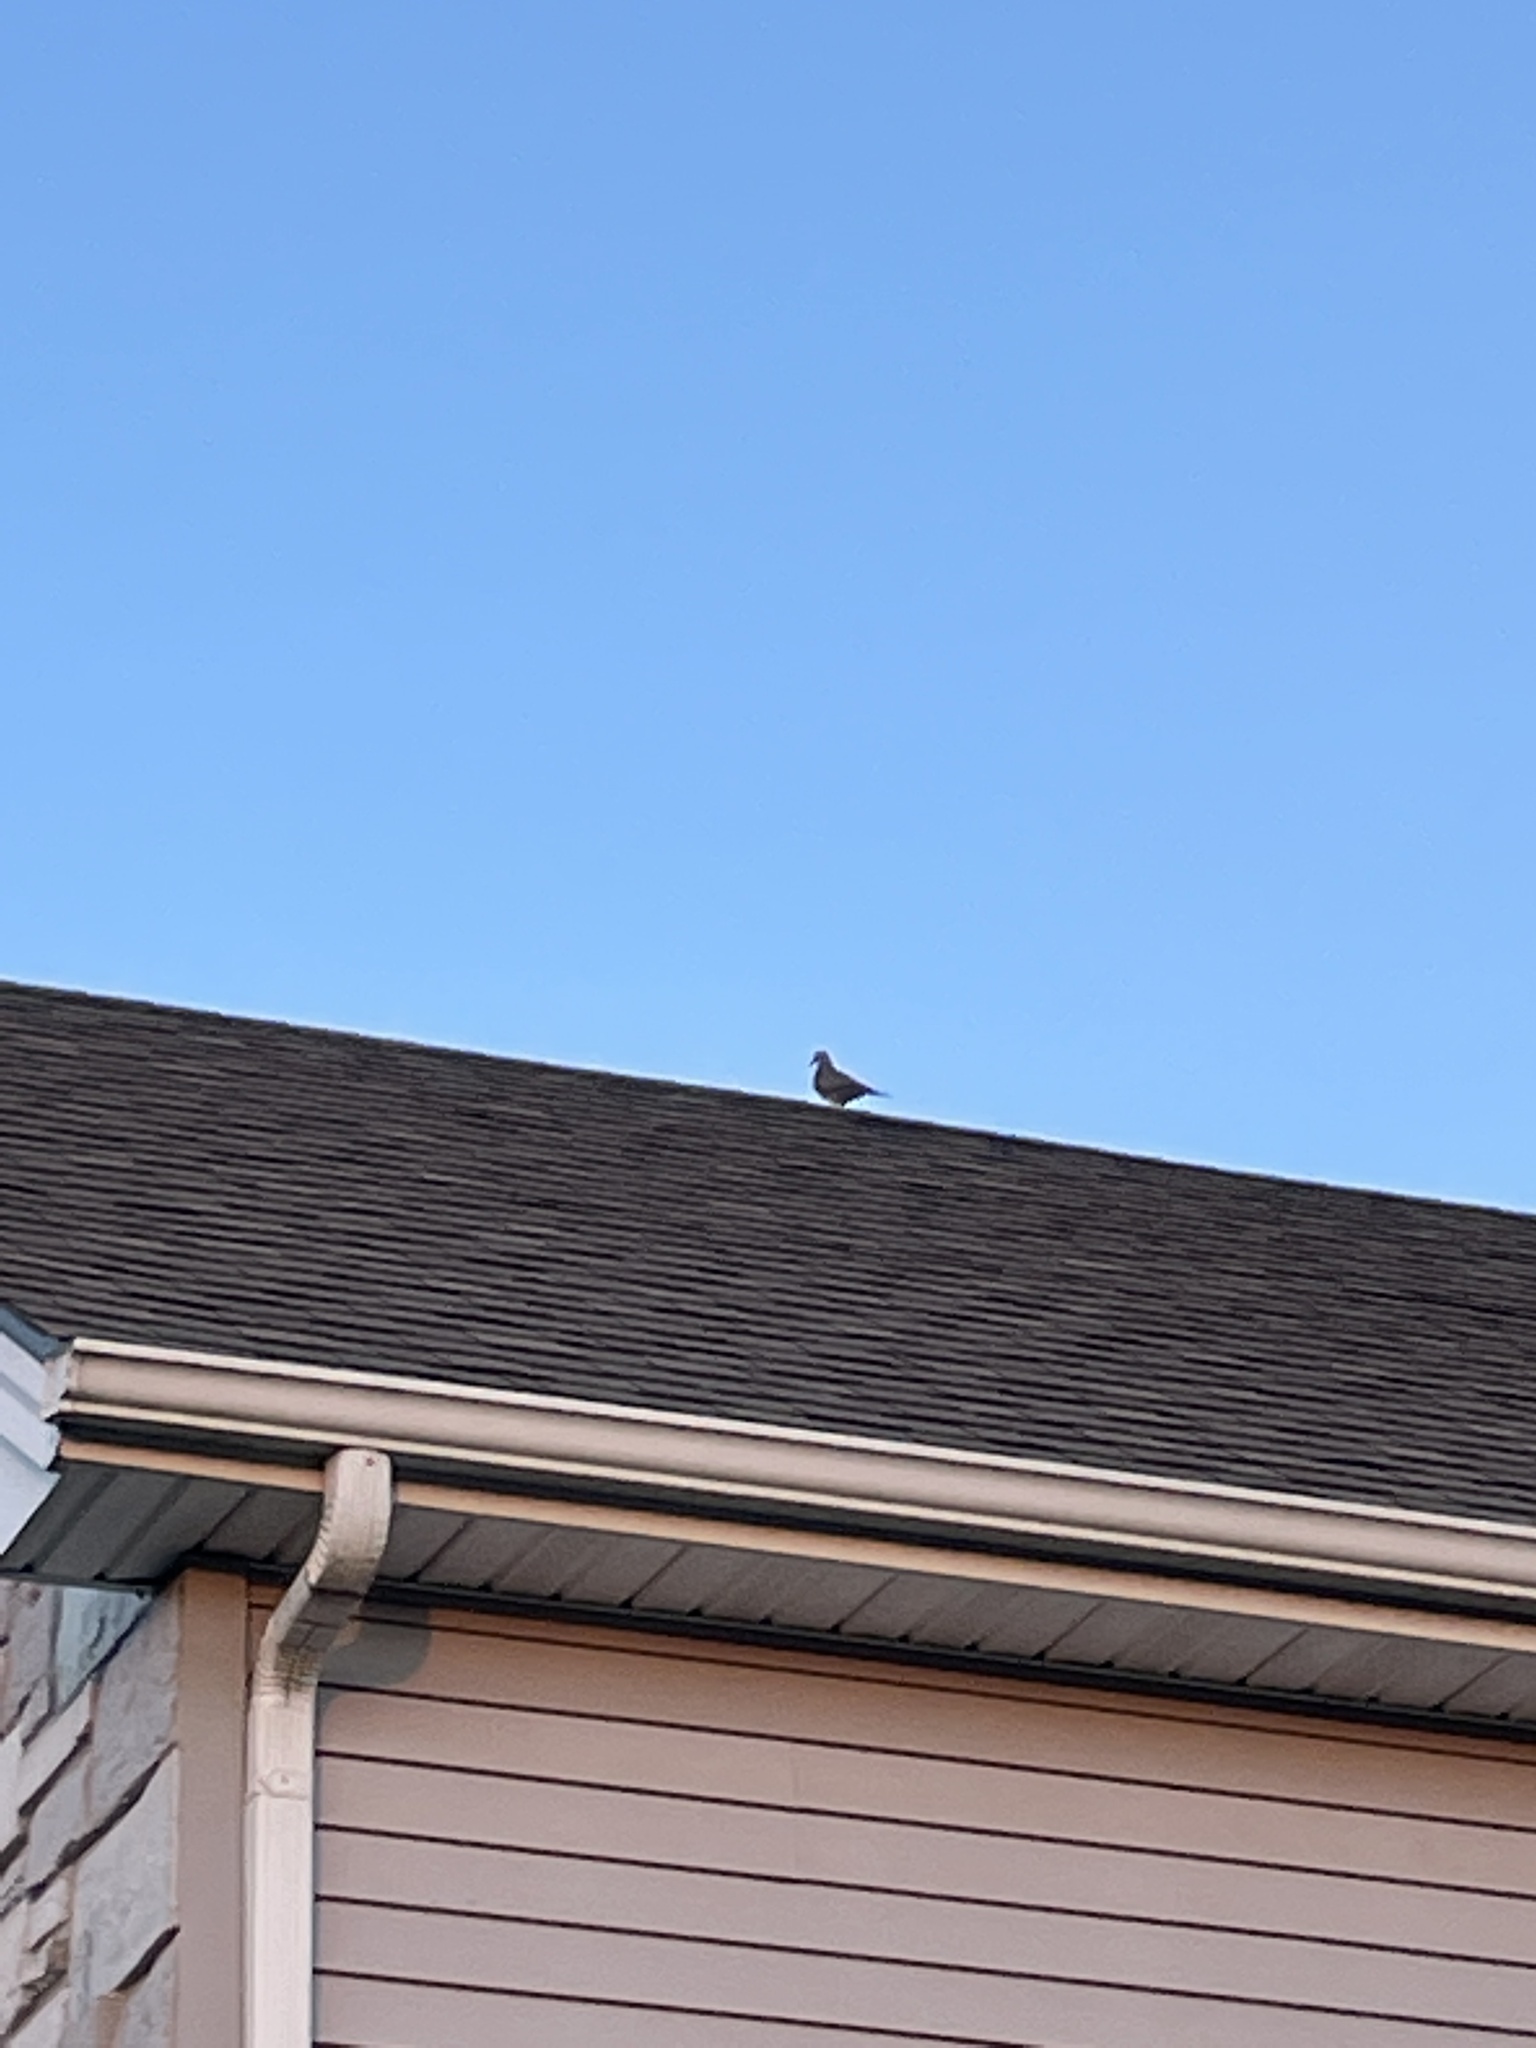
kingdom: Animalia
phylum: Chordata
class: Aves
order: Columbiformes
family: Columbidae
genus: Zenaida
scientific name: Zenaida macroura
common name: Mourning dove
